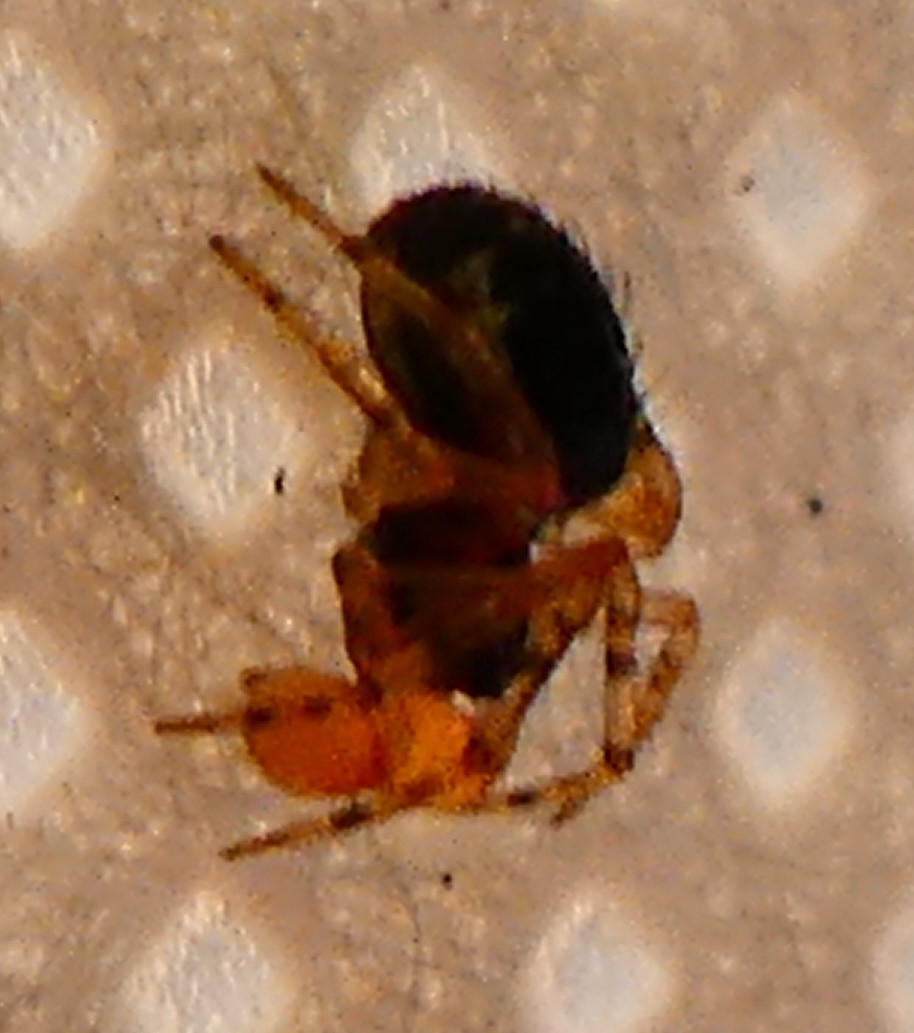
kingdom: Animalia
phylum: Arthropoda
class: Arachnida
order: Araneae
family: Theridiidae
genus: Sardinidion
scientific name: Sardinidion blackwalli
